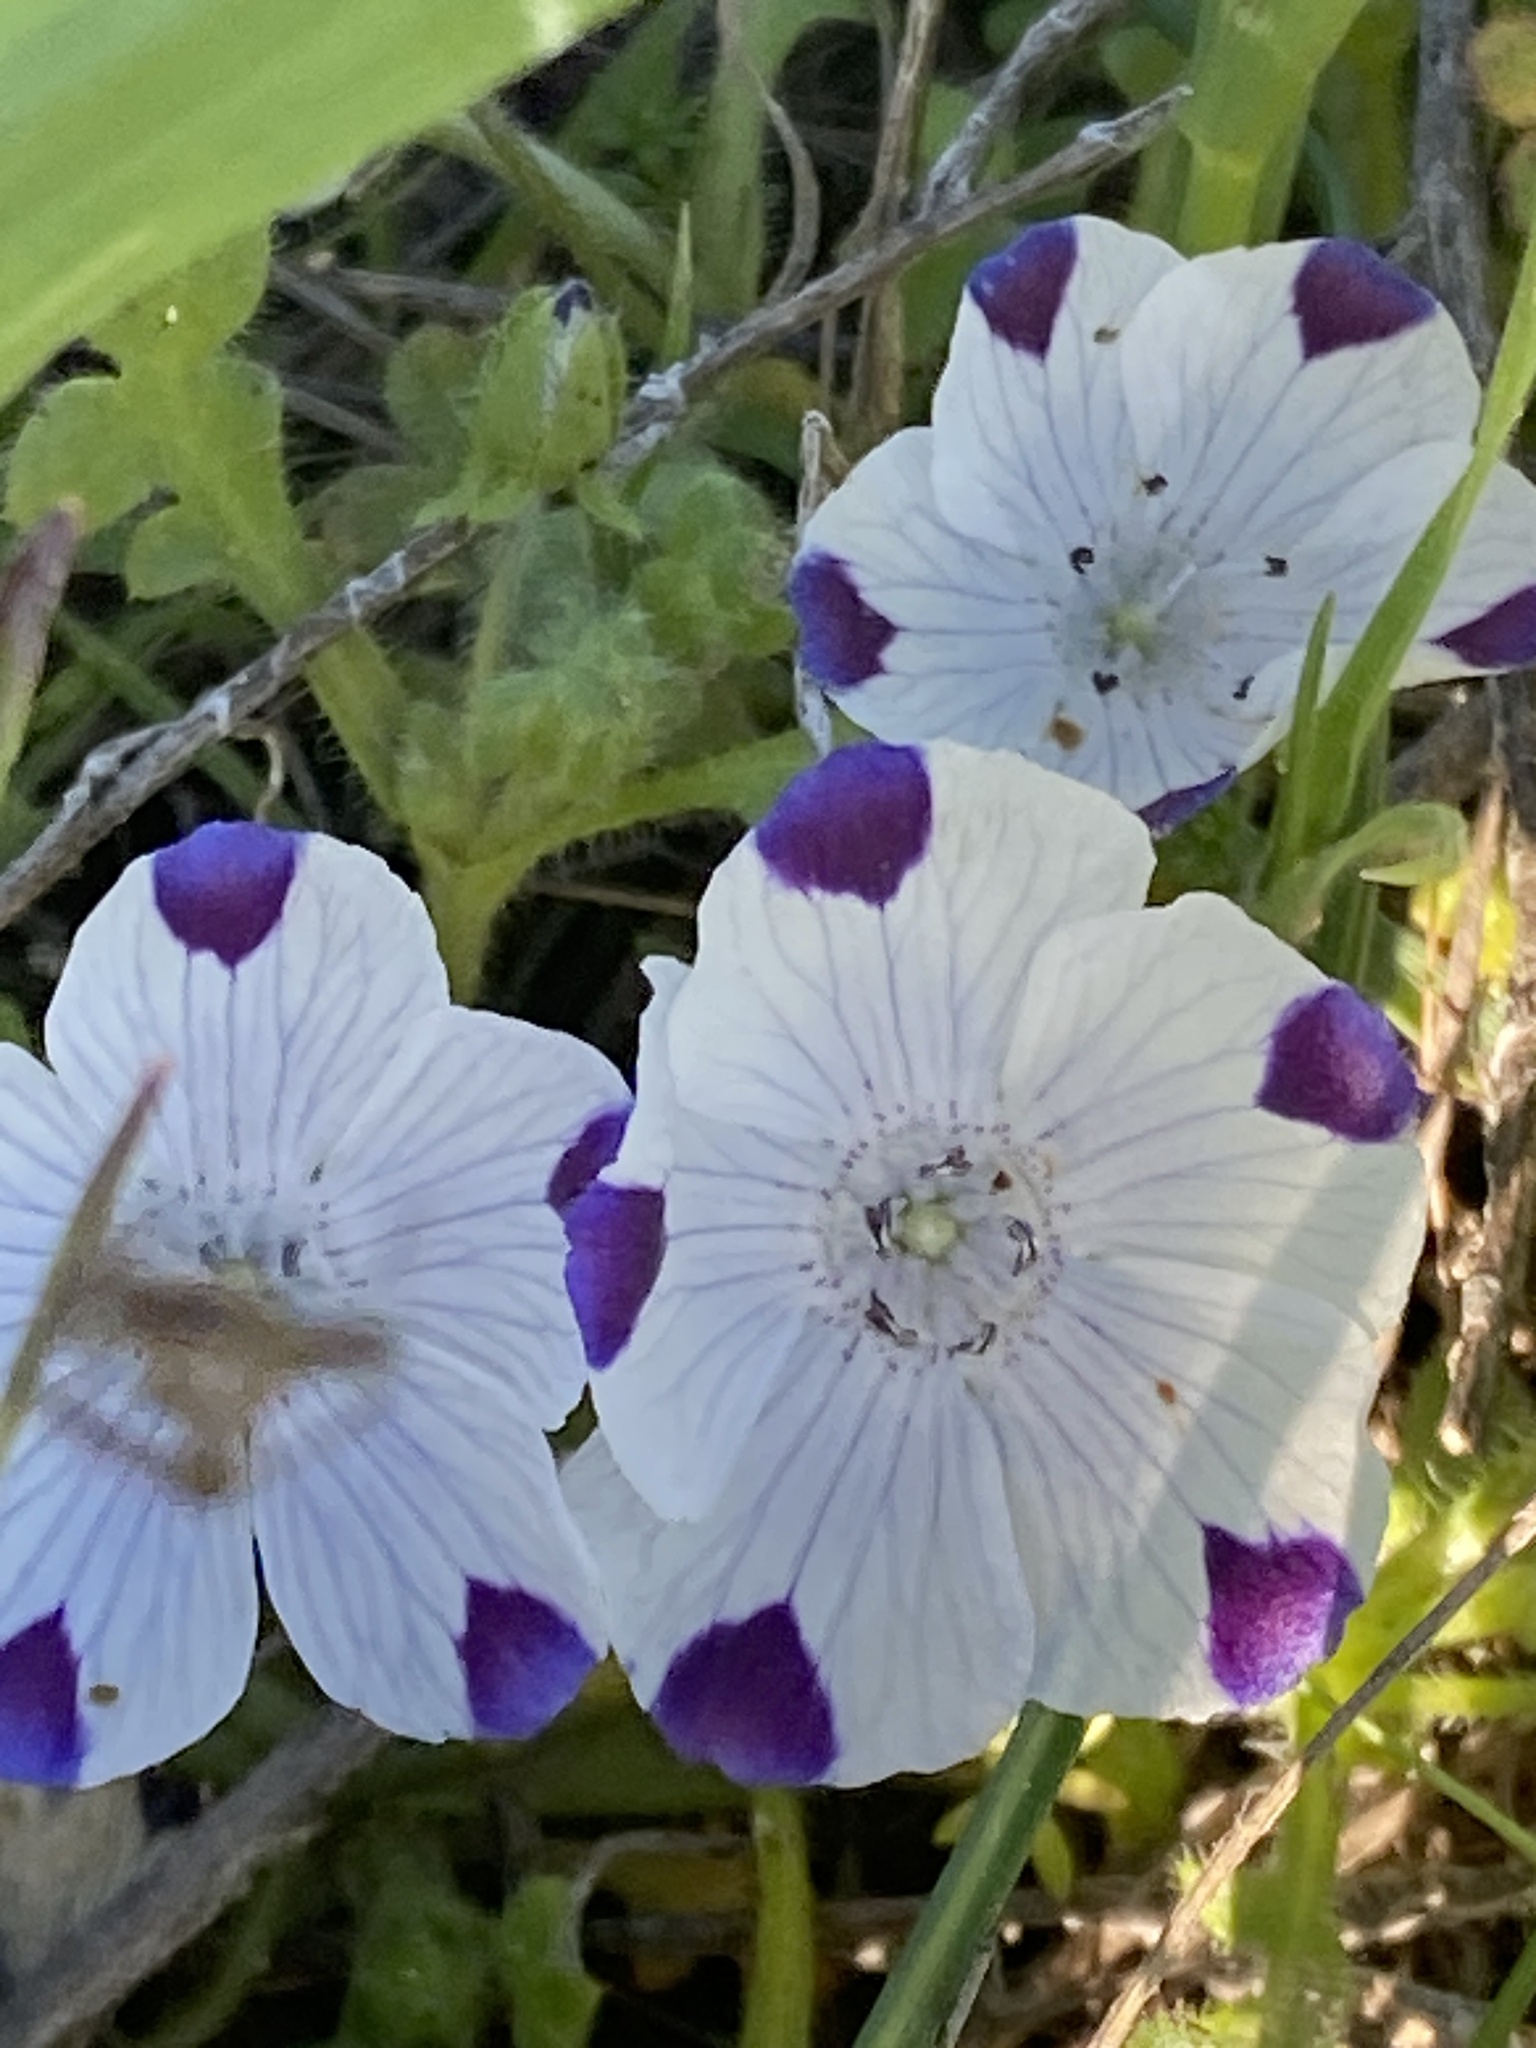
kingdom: Plantae
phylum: Tracheophyta
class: Magnoliopsida
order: Boraginales
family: Hydrophyllaceae
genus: Nemophila
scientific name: Nemophila maculata
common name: Fivespot
